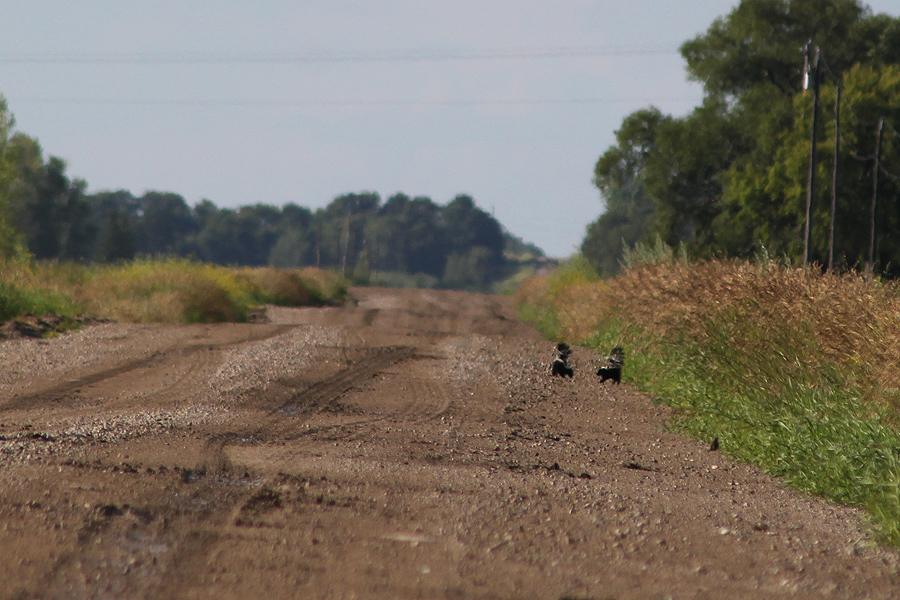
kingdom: Animalia
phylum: Chordata
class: Mammalia
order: Carnivora
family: Mephitidae
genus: Mephitis
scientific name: Mephitis mephitis
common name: Striped skunk
